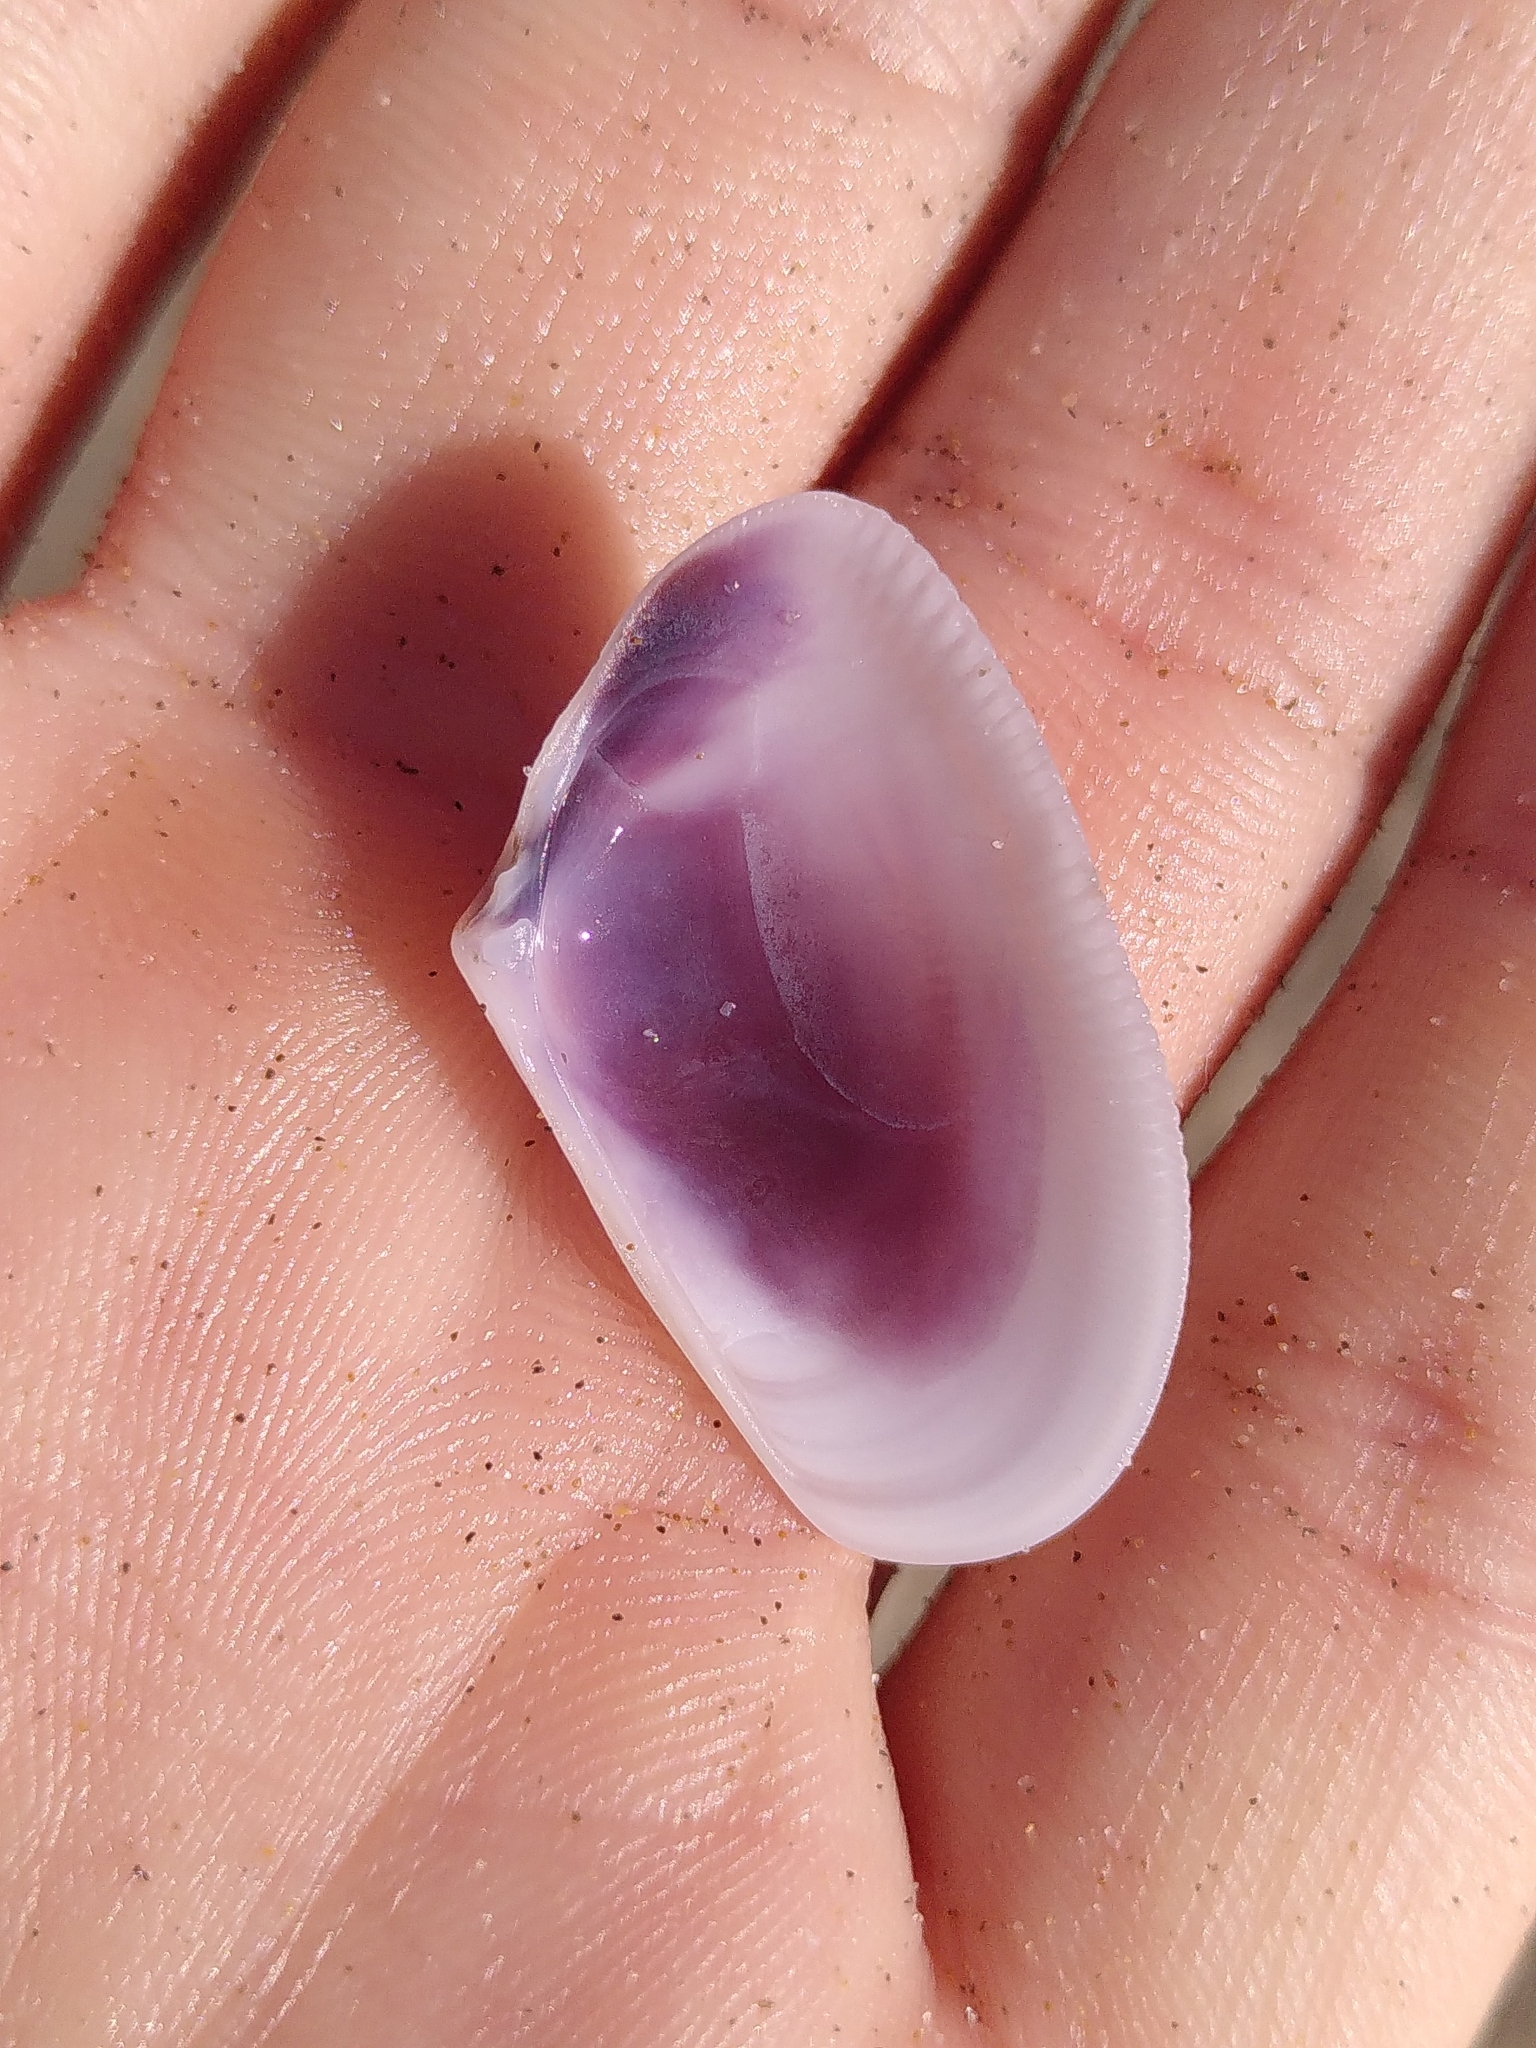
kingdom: Animalia
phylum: Mollusca
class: Bivalvia
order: Cardiida
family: Donacidae
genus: Donax
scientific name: Donax trunculus
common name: Truncate donax
